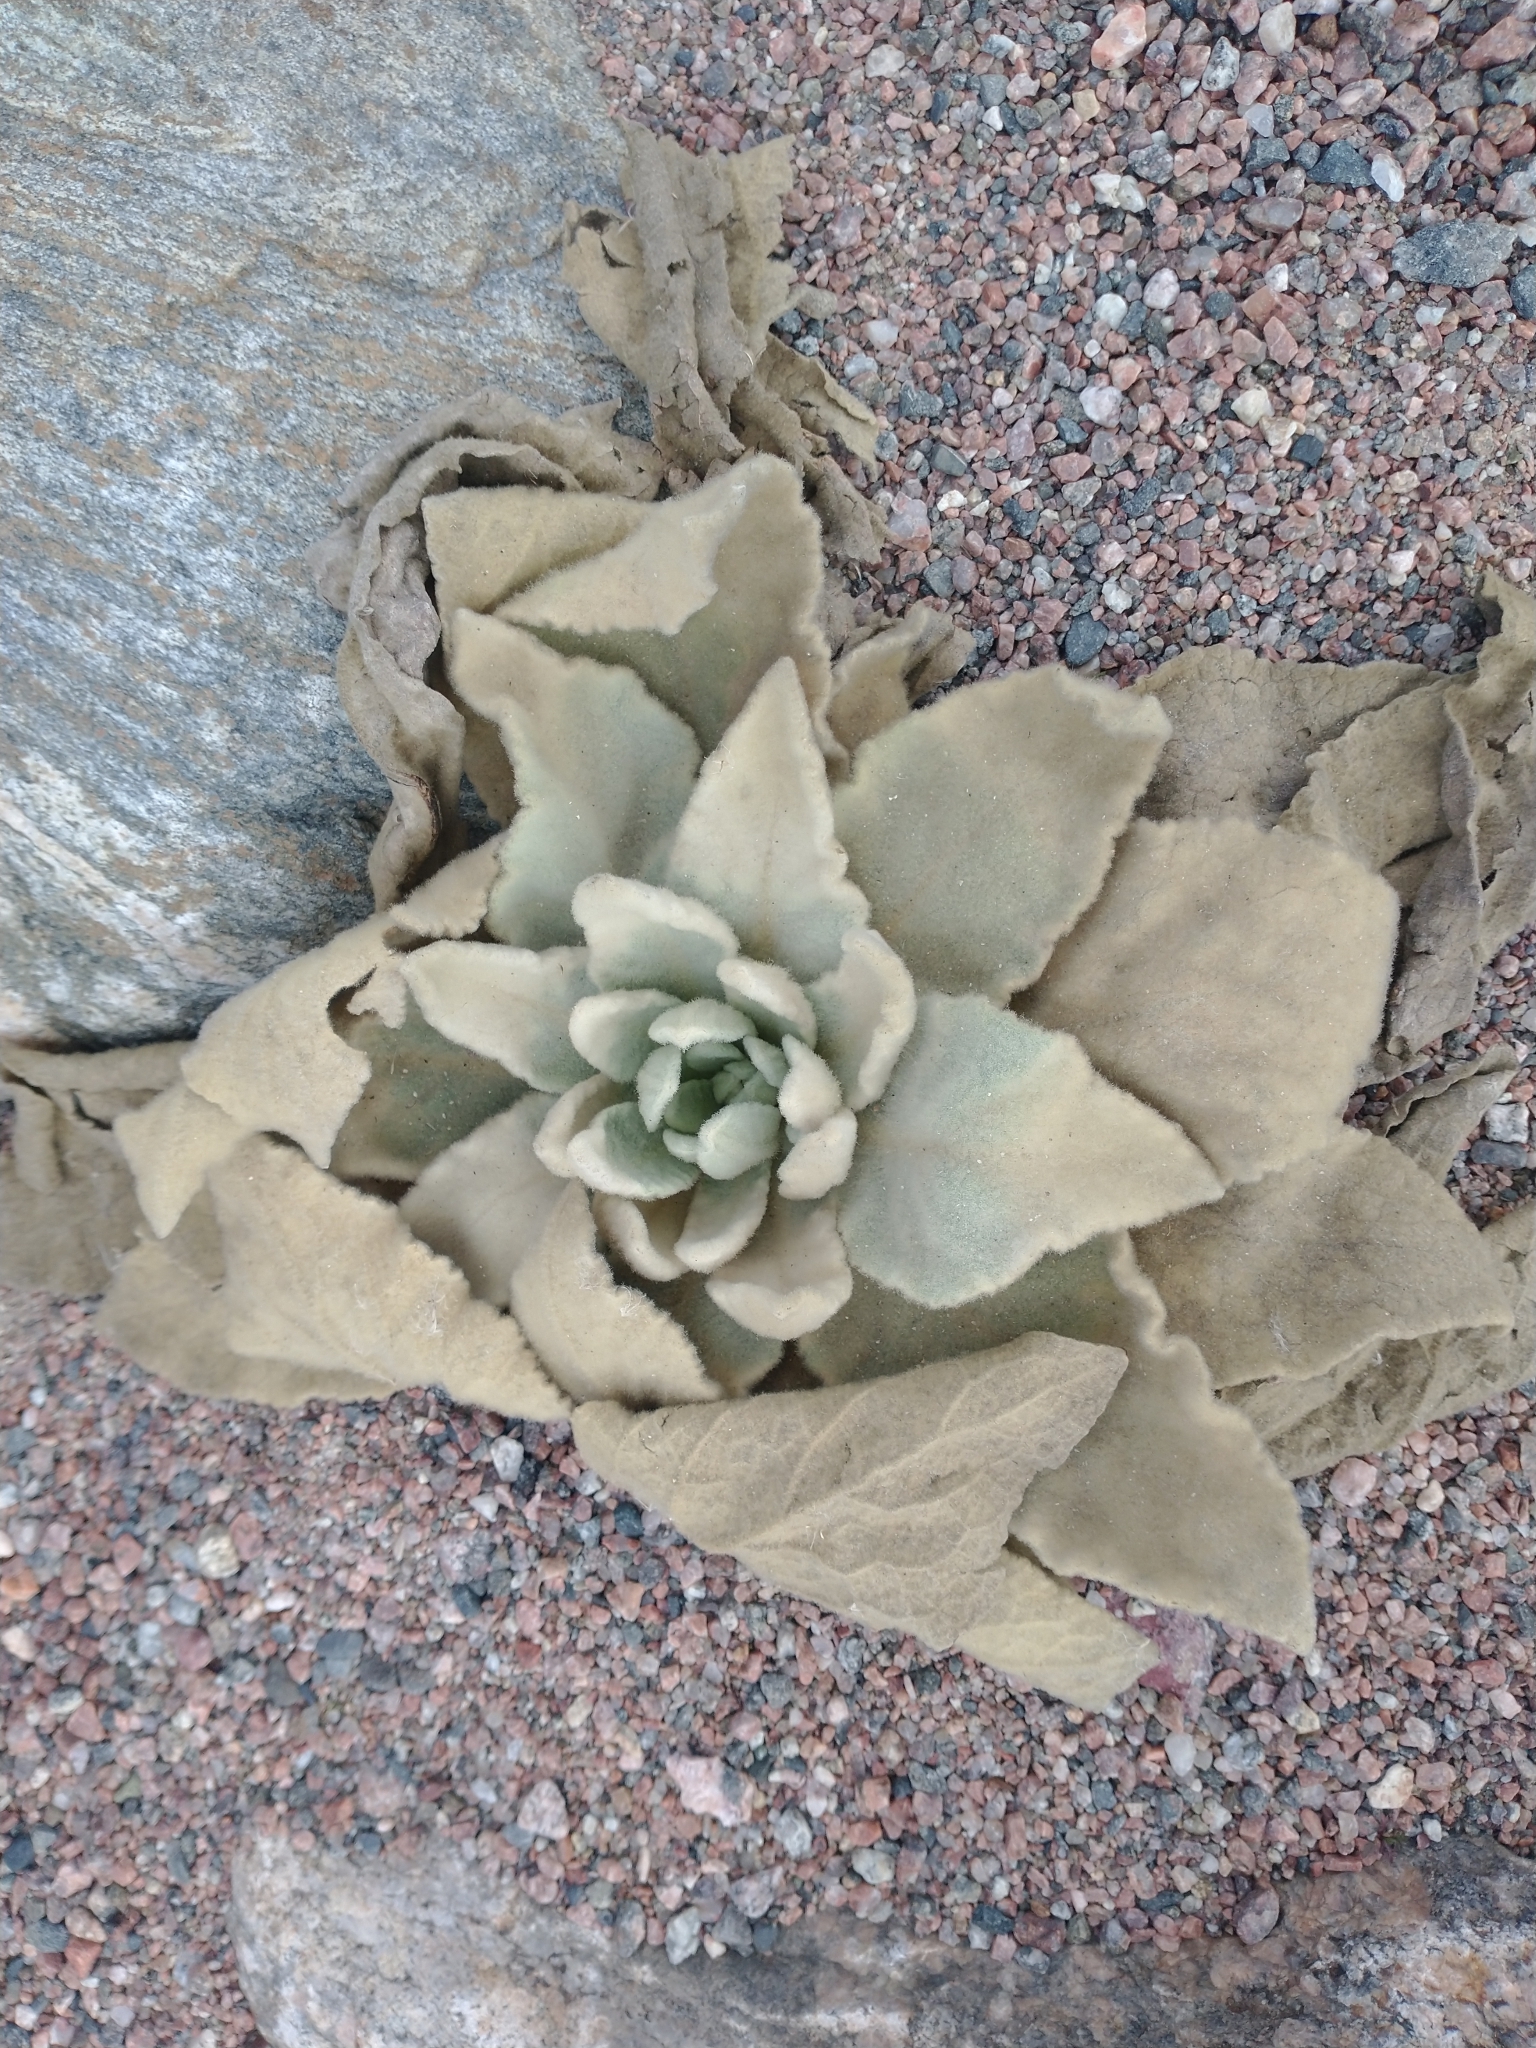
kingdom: Plantae
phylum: Tracheophyta
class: Magnoliopsida
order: Lamiales
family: Scrophulariaceae
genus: Verbascum
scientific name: Verbascum thapsus
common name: Common mullein
